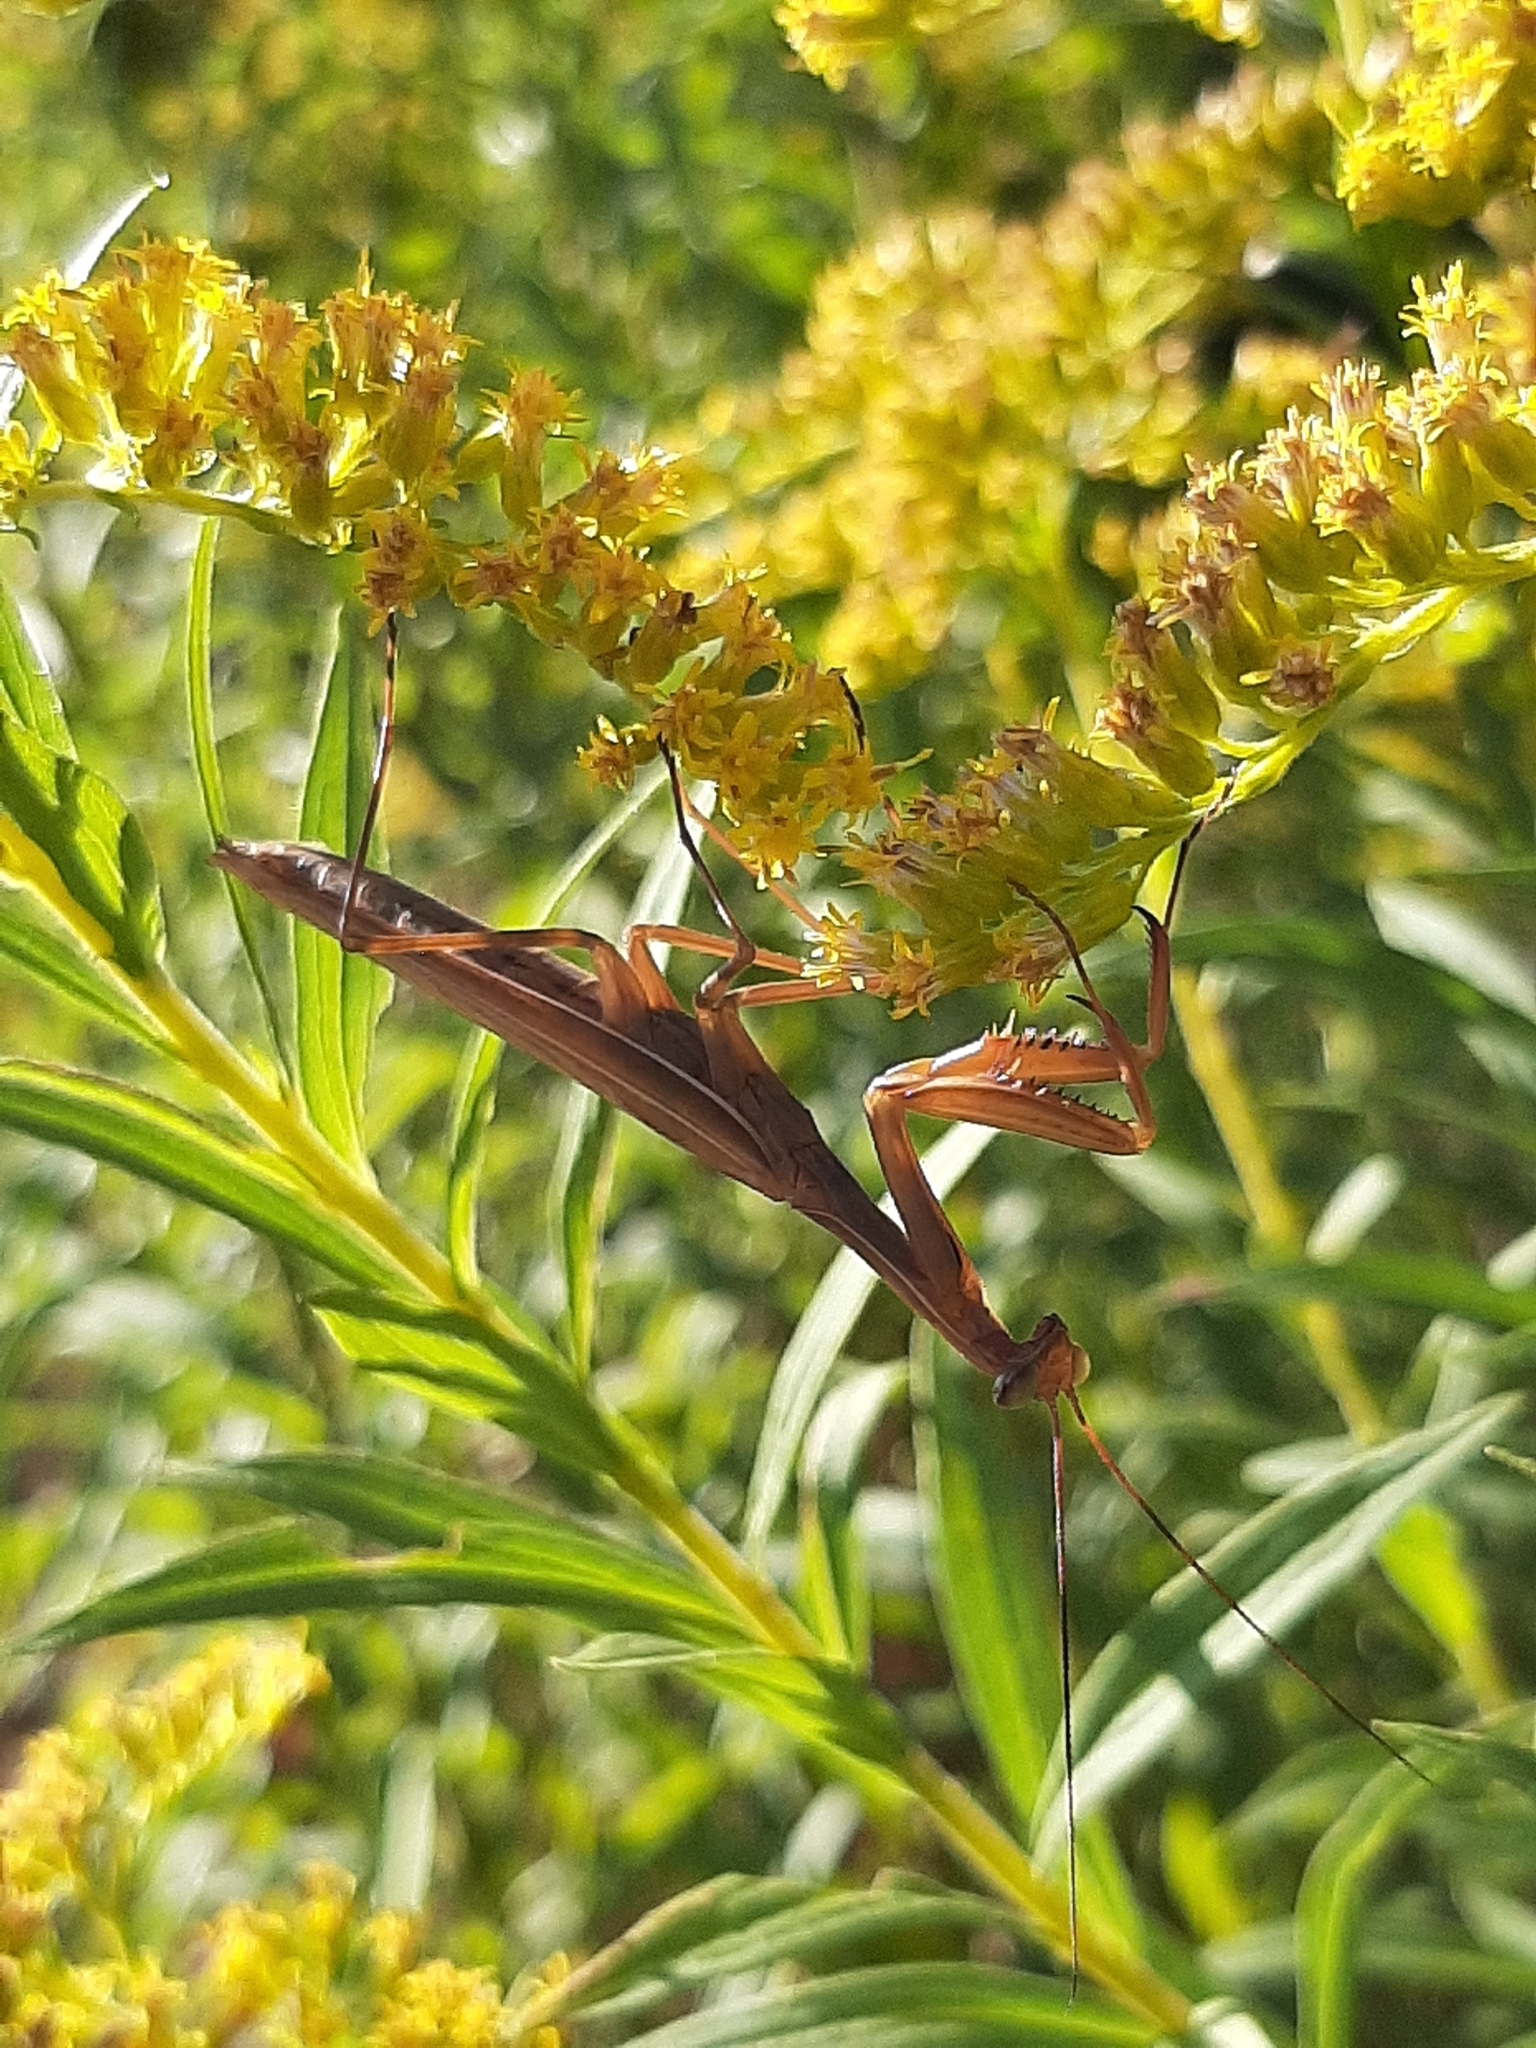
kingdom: Animalia
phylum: Arthropoda
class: Insecta
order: Mantodea
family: Mantidae
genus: Mantis
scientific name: Mantis religiosa
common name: Praying mantis
